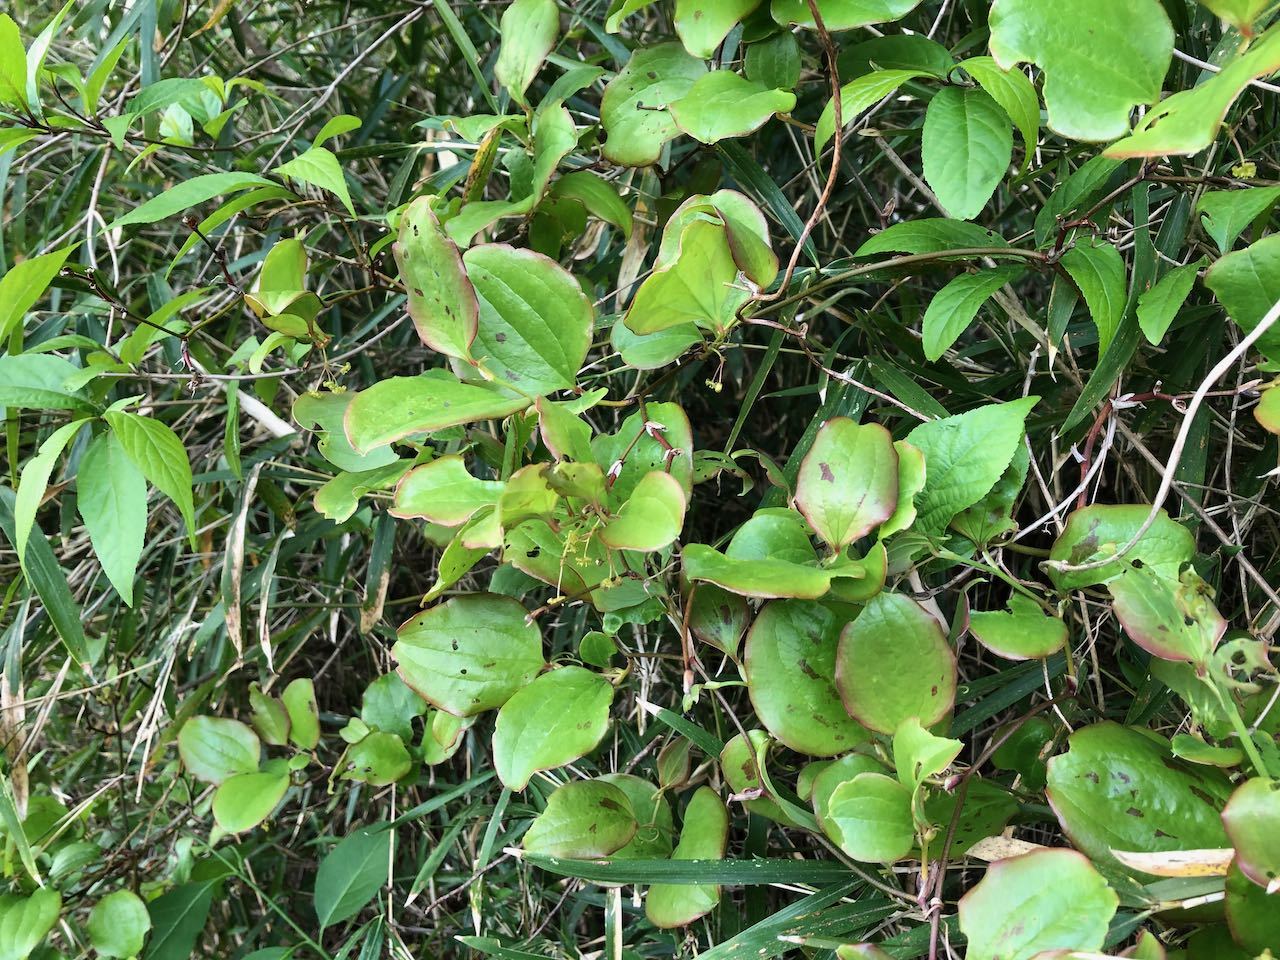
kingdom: Plantae
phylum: Tracheophyta
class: Liliopsida
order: Liliales
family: Smilacaceae
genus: Smilax
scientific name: Smilax china
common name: Chinaroot
